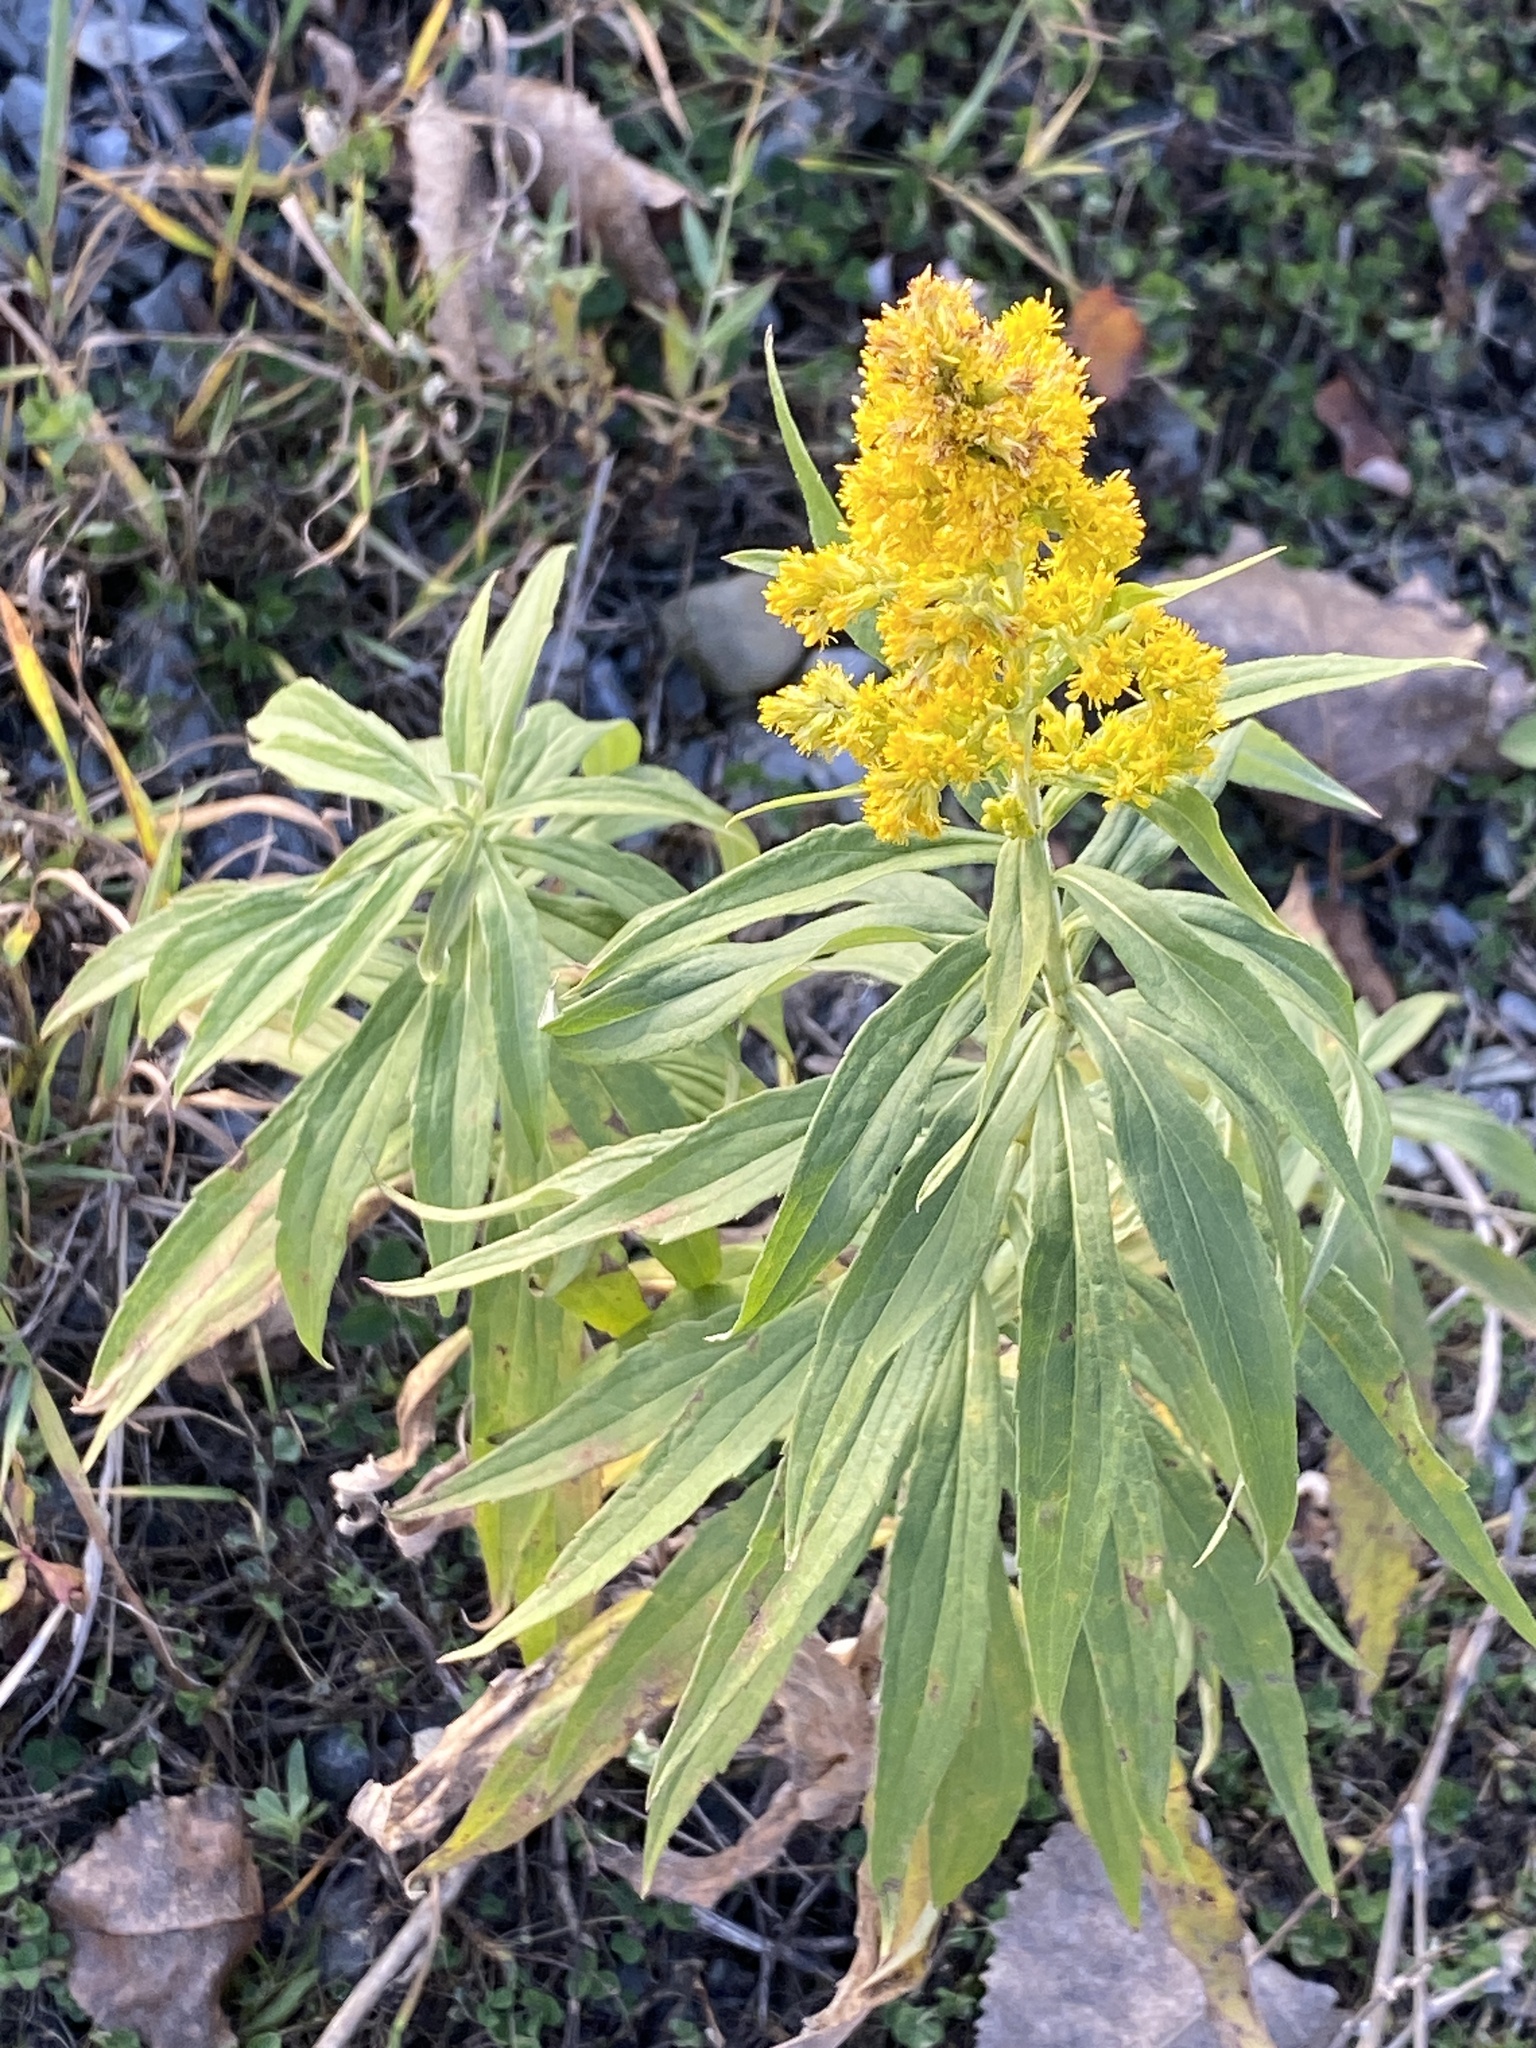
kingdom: Plantae
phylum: Tracheophyta
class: Magnoliopsida
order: Asterales
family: Asteraceae
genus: Solidago
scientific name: Solidago altissima
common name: Late goldenrod
